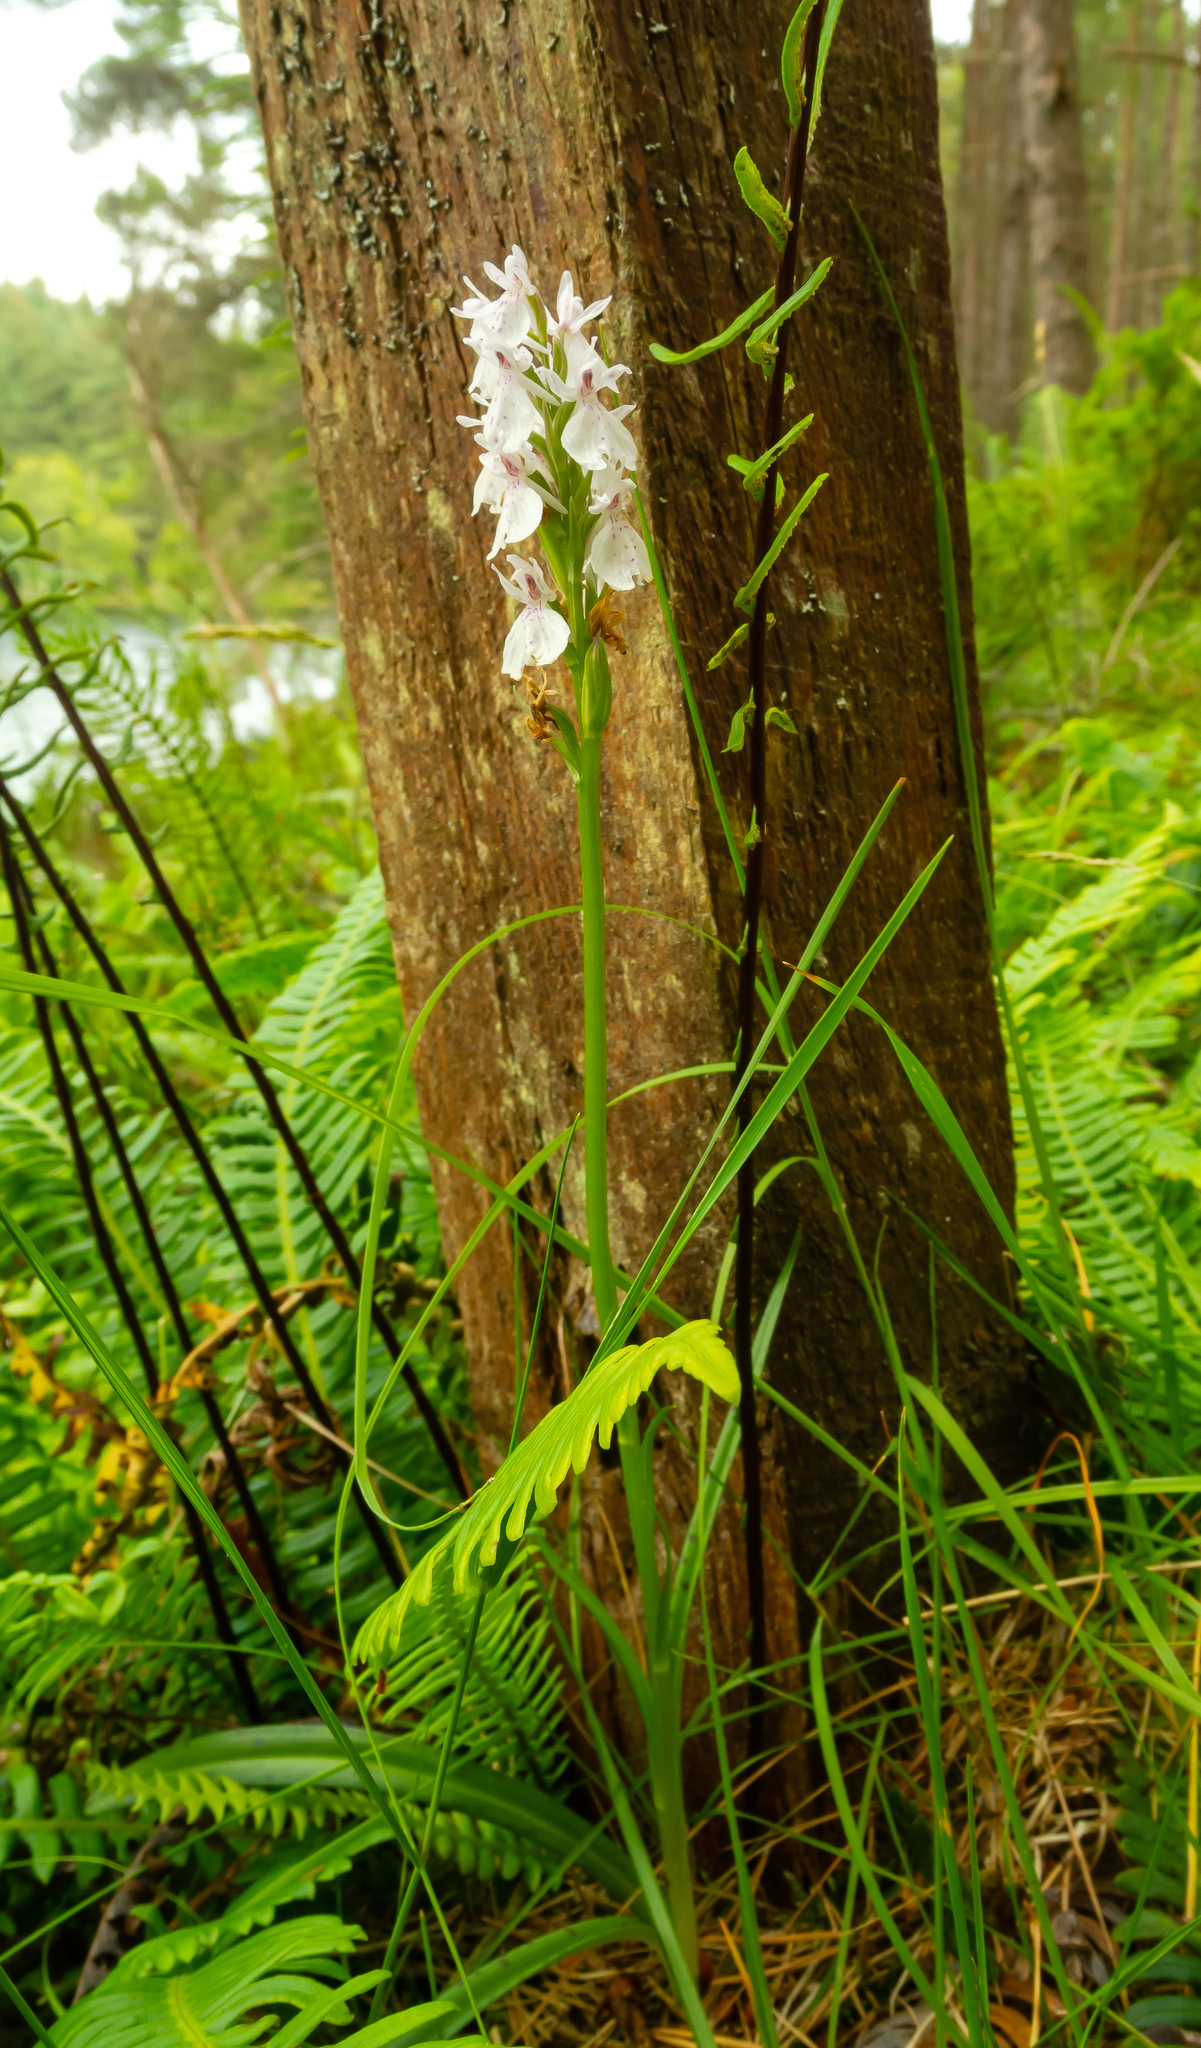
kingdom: Plantae
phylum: Tracheophyta
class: Liliopsida
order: Asparagales
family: Orchidaceae
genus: Dactylorhiza
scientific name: Dactylorhiza maculata
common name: Heath spotted-orchid
